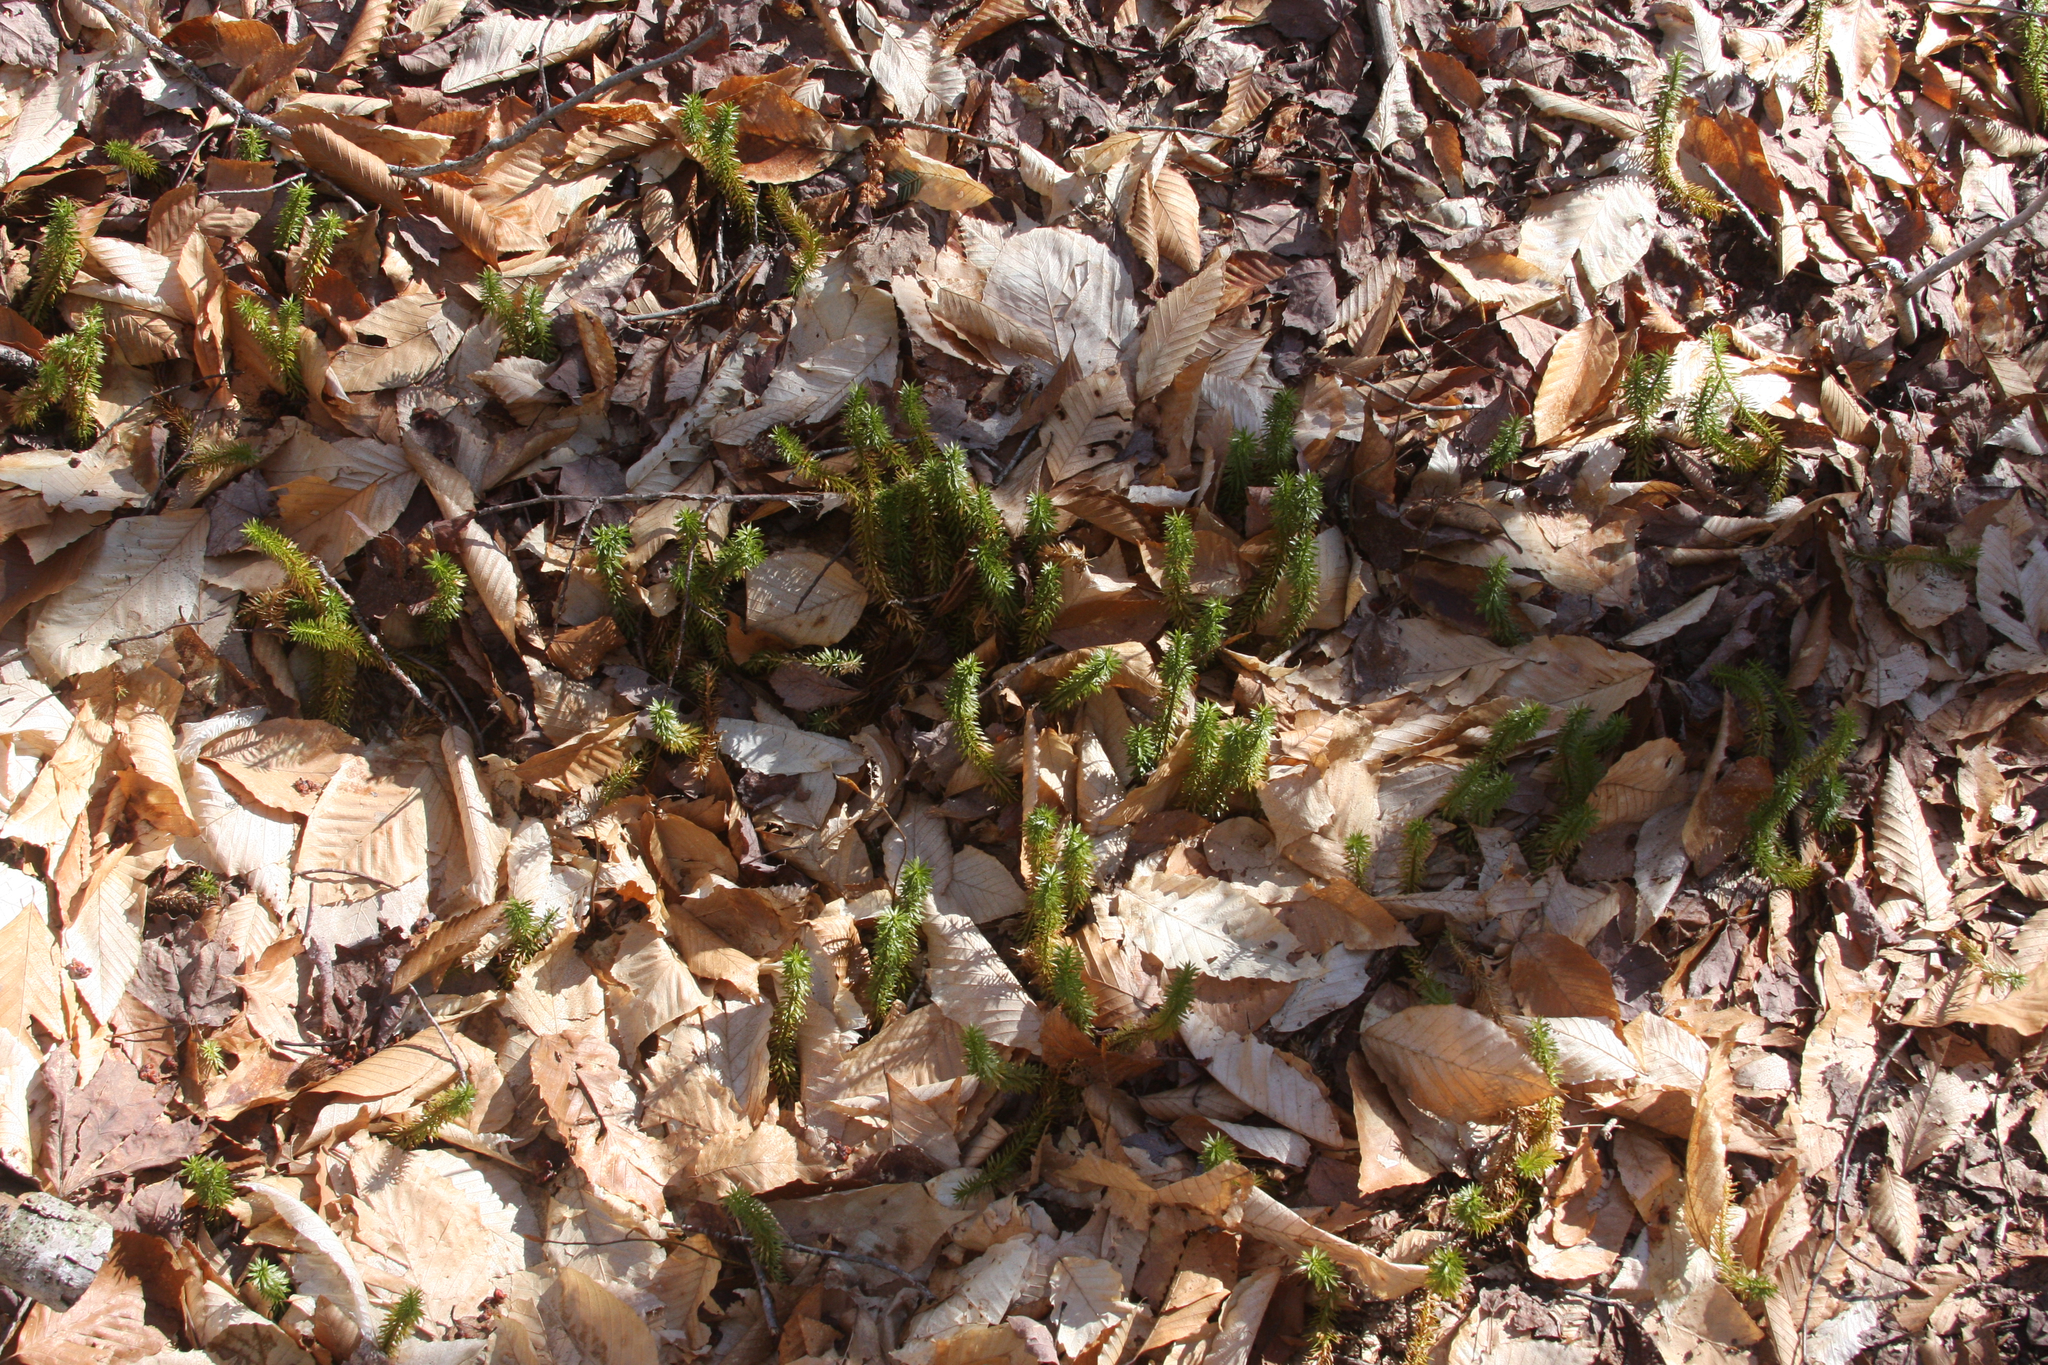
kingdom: Plantae
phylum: Tracheophyta
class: Lycopodiopsida
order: Lycopodiales
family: Lycopodiaceae
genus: Spinulum
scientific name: Spinulum annotinum
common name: Interrupted club-moss
